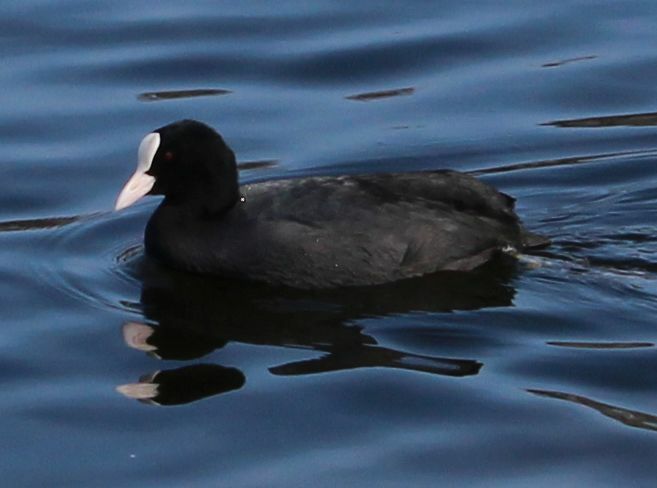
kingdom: Animalia
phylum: Chordata
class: Aves
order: Gruiformes
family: Rallidae
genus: Fulica
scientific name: Fulica atra
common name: Eurasian coot
